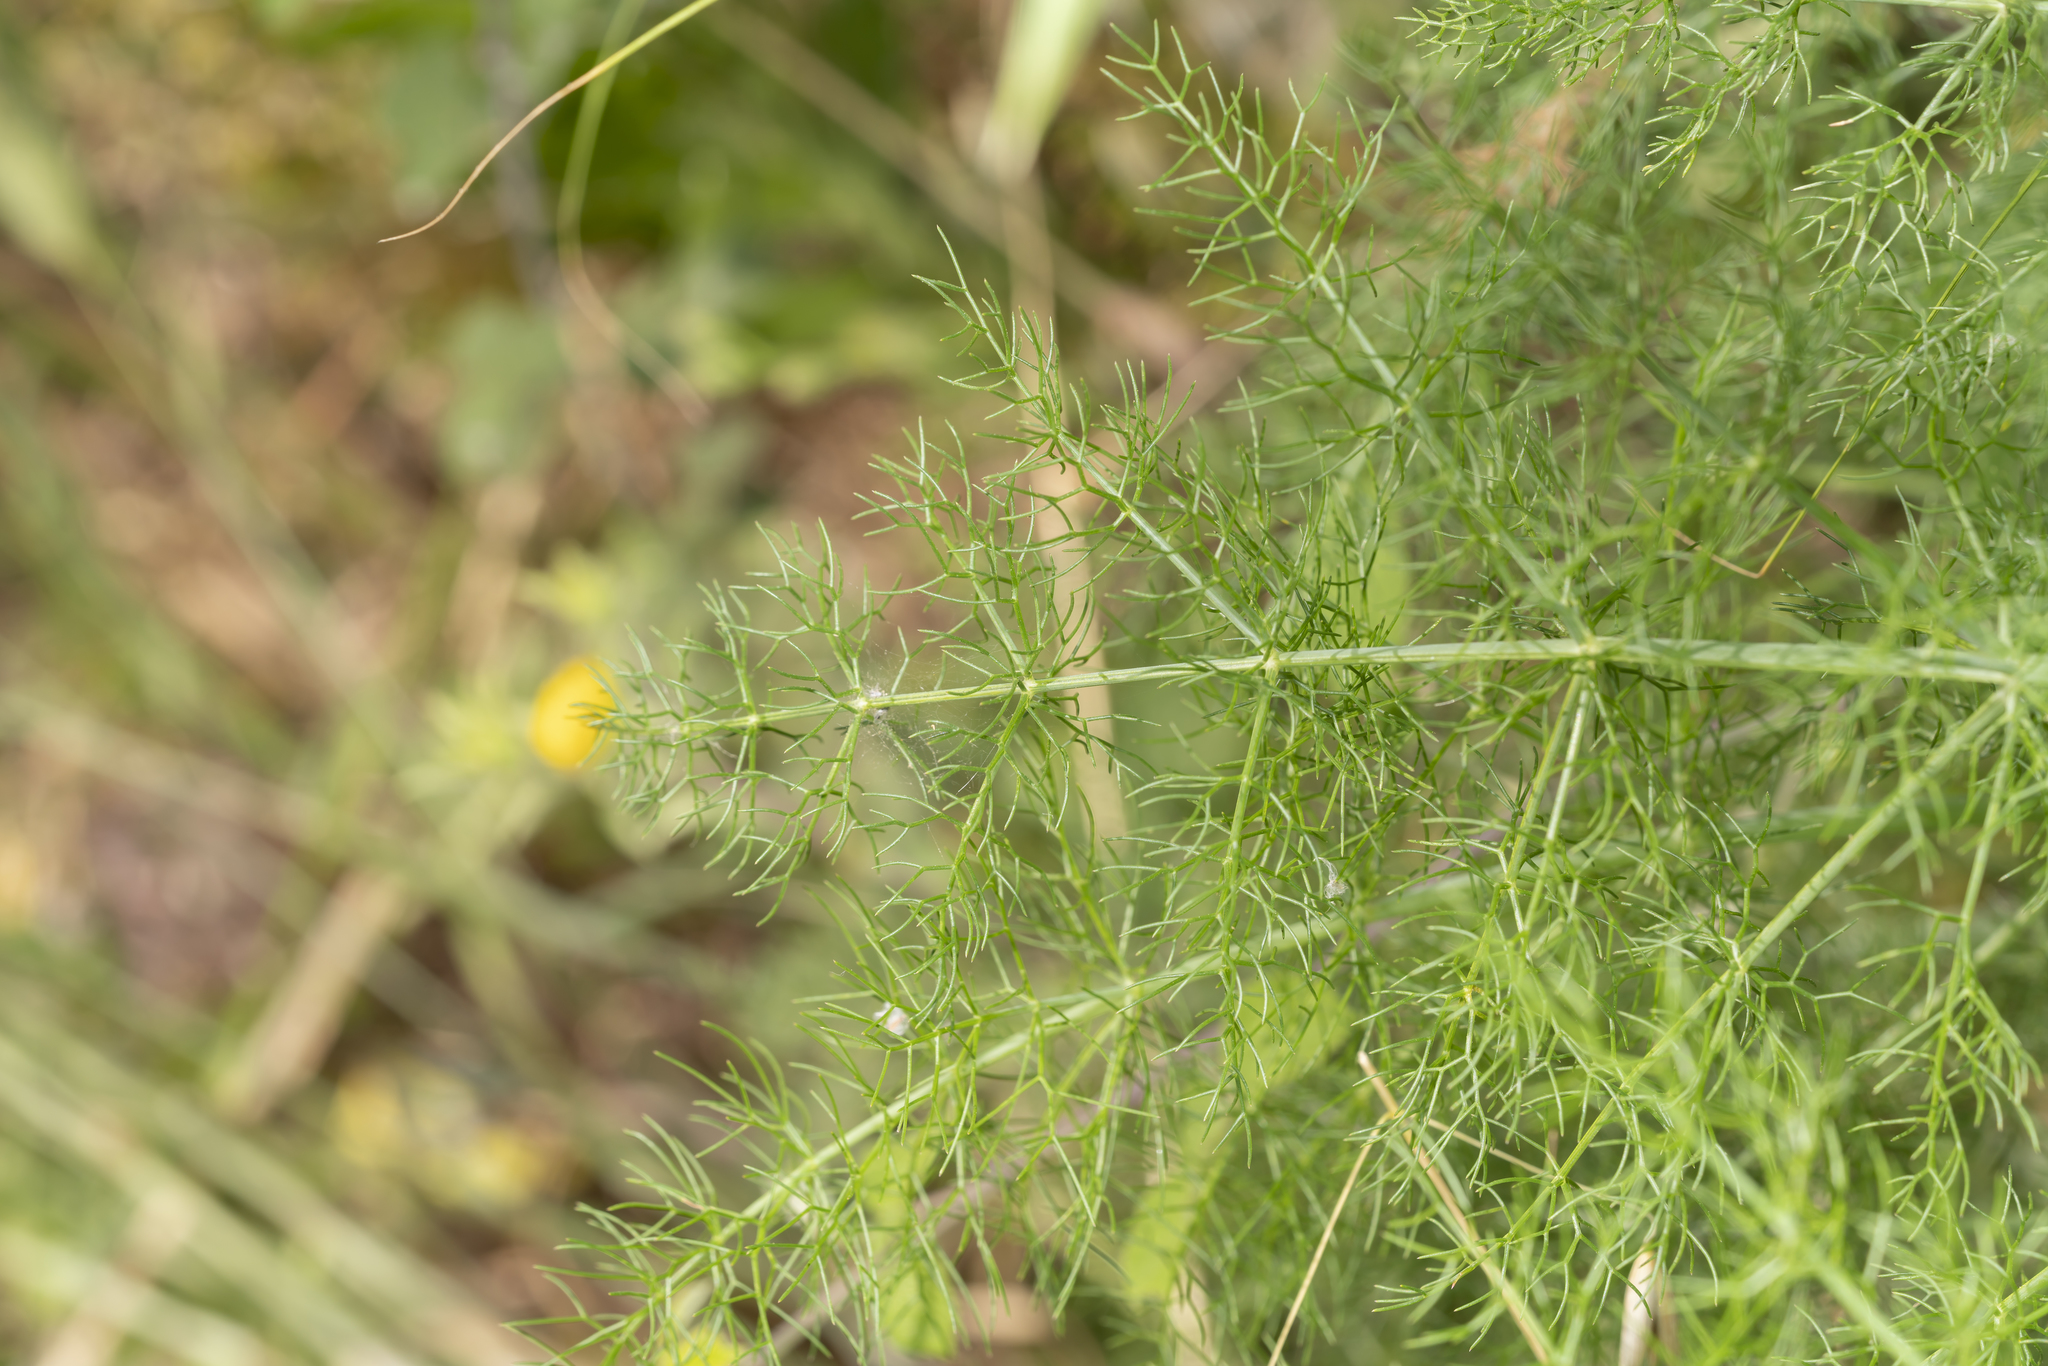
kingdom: Plantae
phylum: Tracheophyta
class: Magnoliopsida
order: Apiales
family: Apiaceae
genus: Foeniculum
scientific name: Foeniculum vulgare
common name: Fennel
